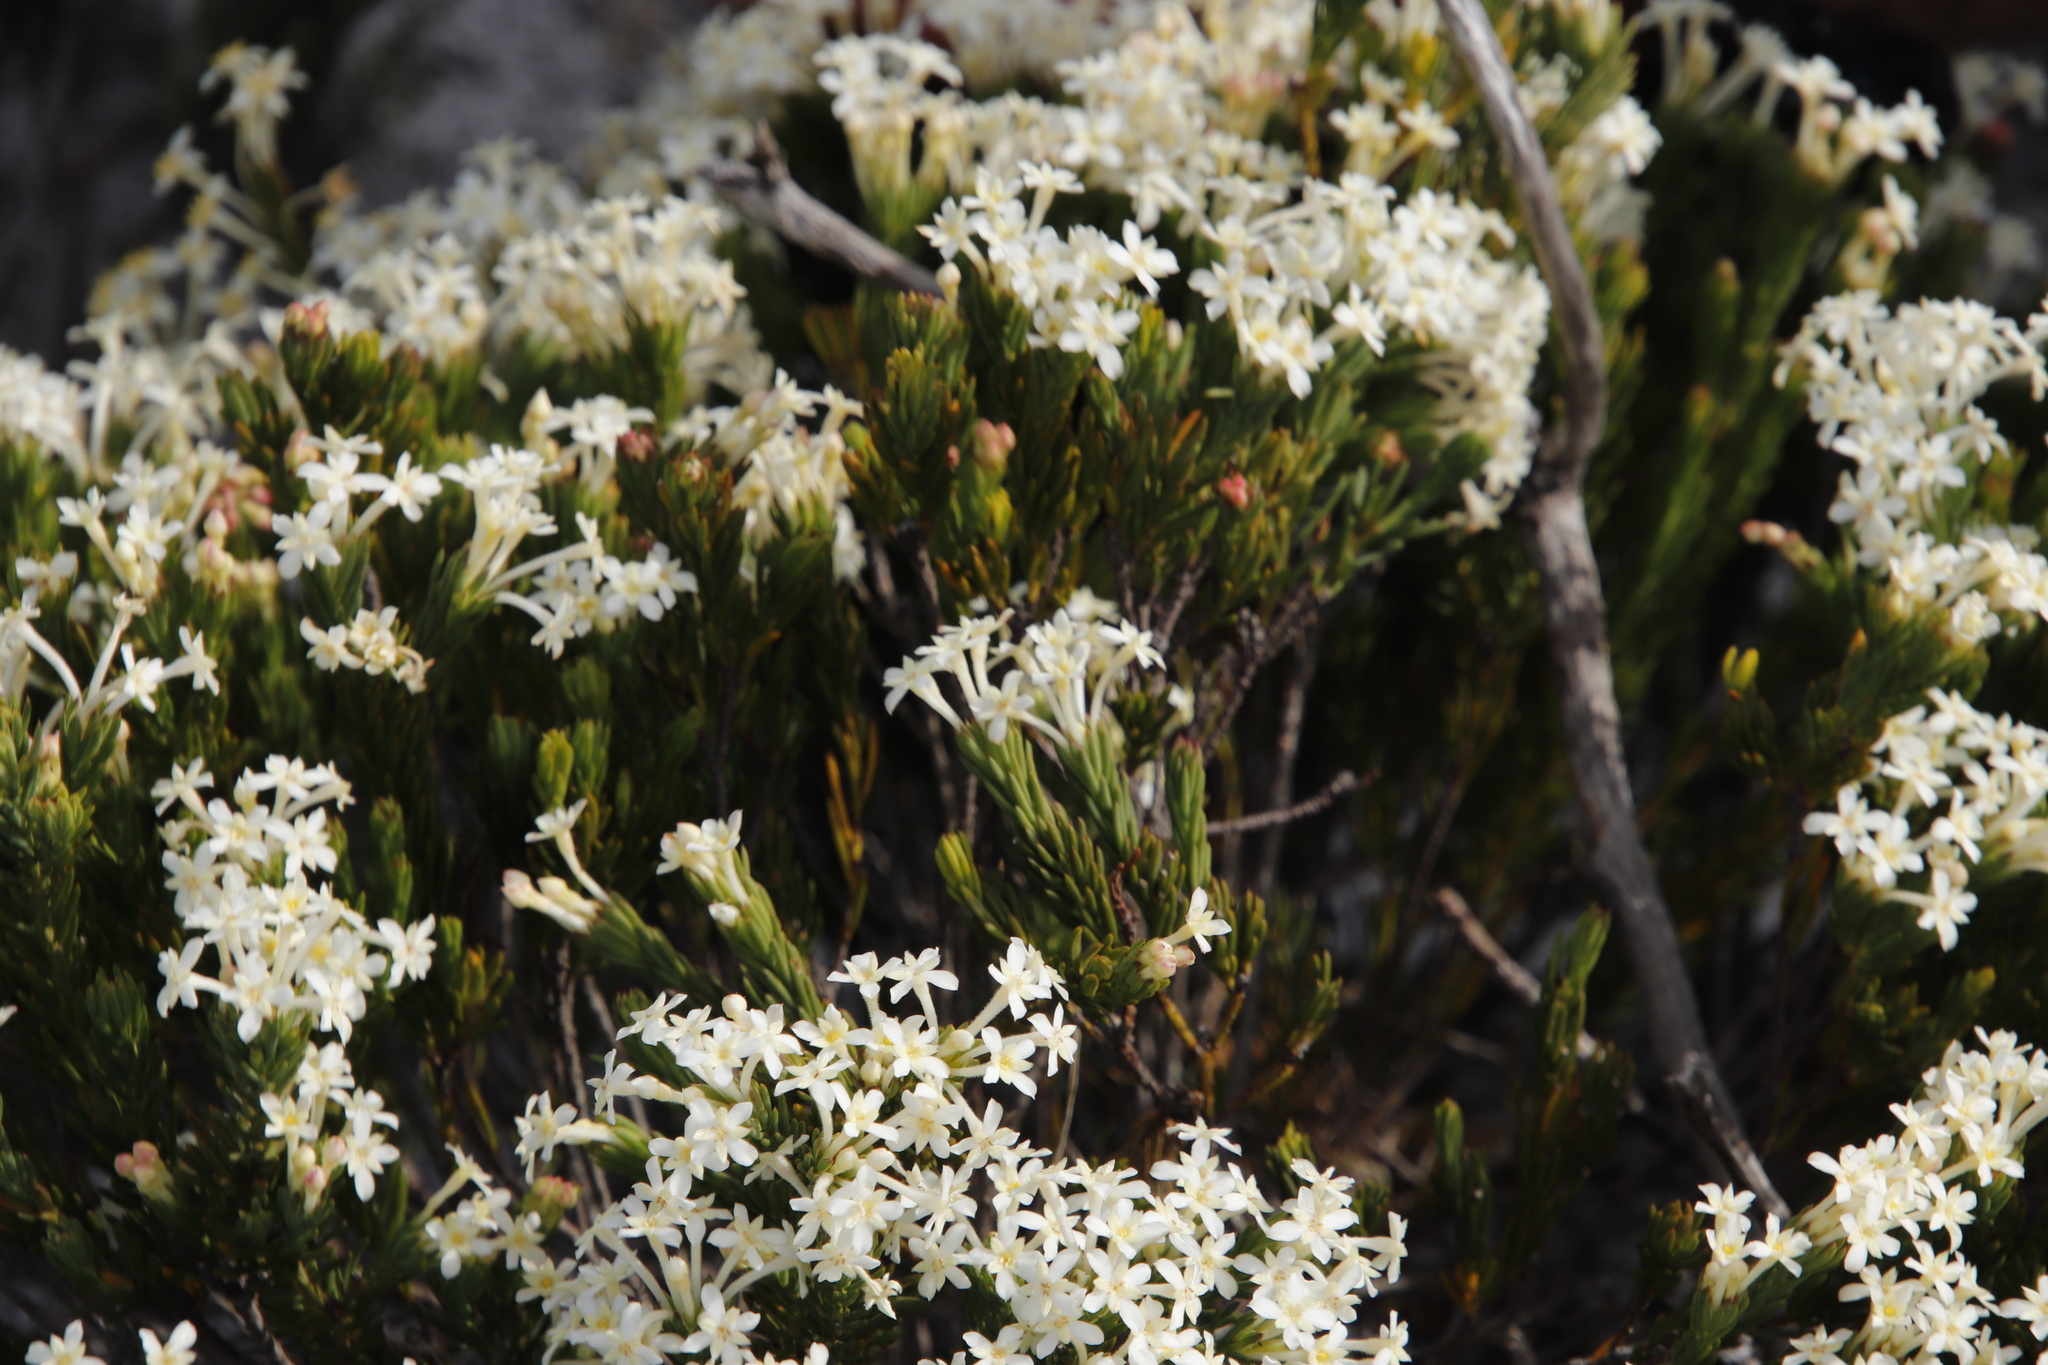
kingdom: Plantae
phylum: Tracheophyta
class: Magnoliopsida
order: Malvales
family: Thymelaeaceae
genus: Gnidia
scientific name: Gnidia pinifolia
